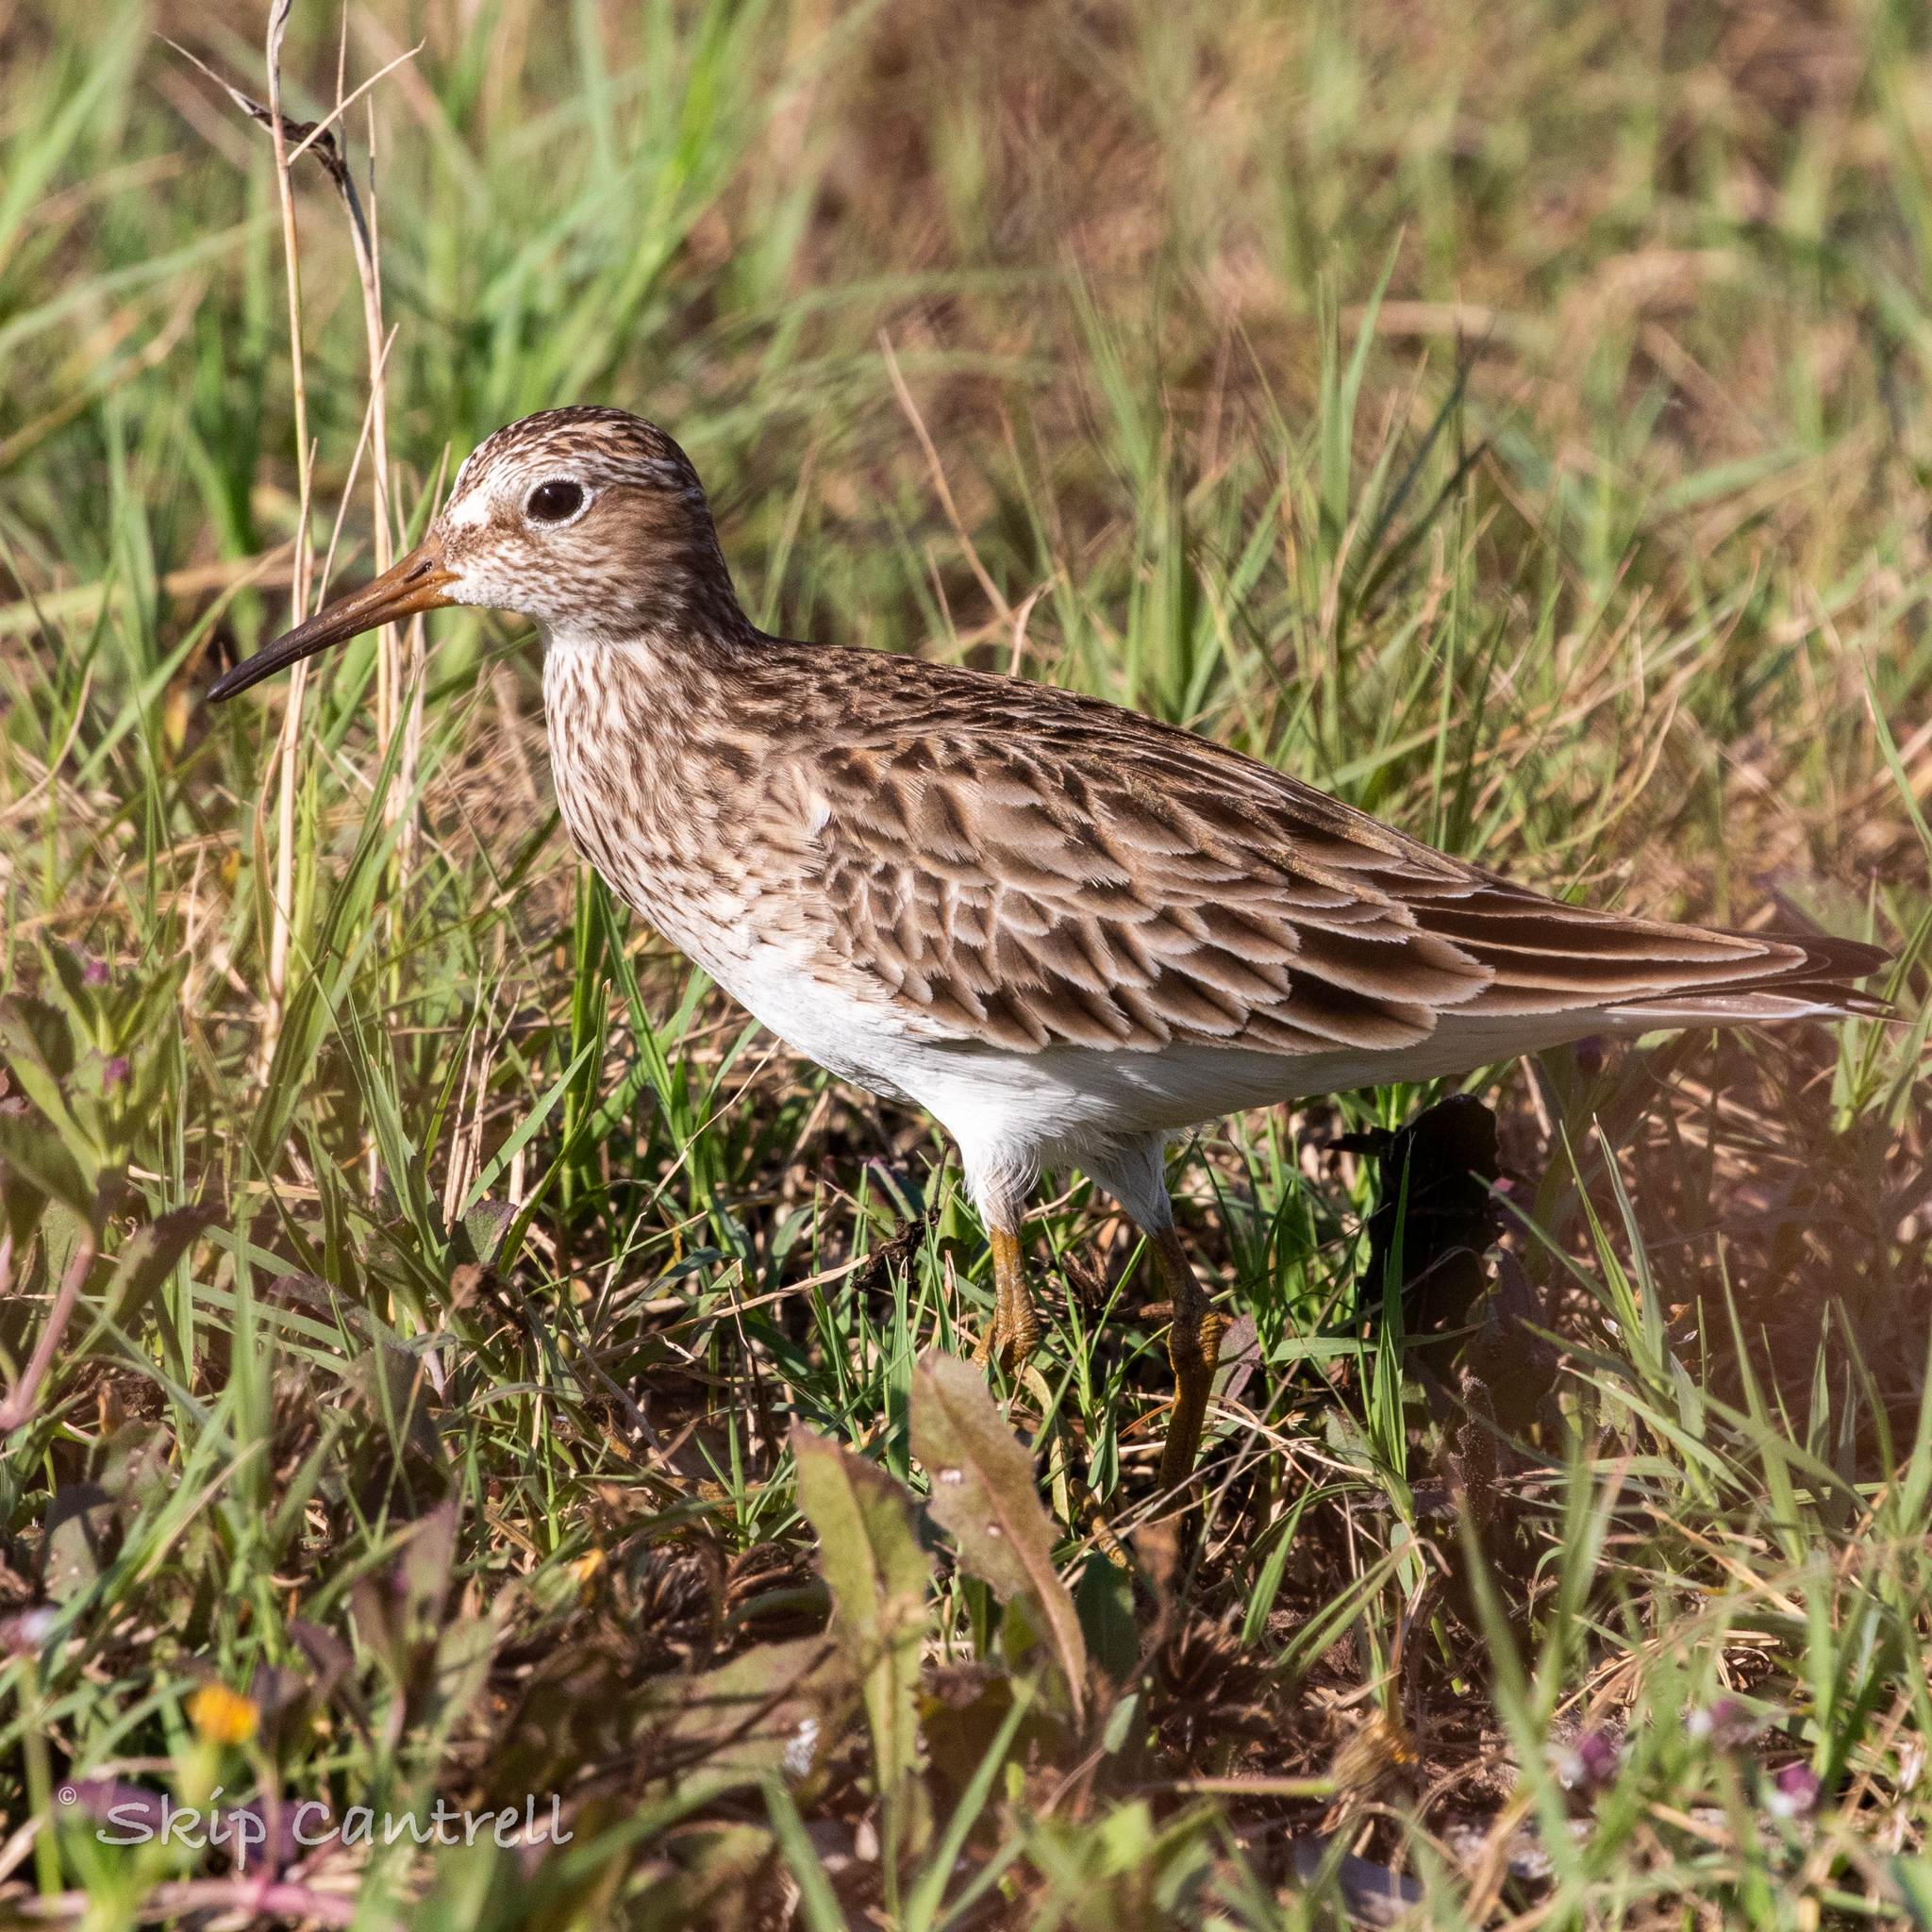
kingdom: Animalia
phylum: Chordata
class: Aves
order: Charadriiformes
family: Scolopacidae
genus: Calidris
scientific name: Calidris melanotos
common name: Pectoral sandpiper
